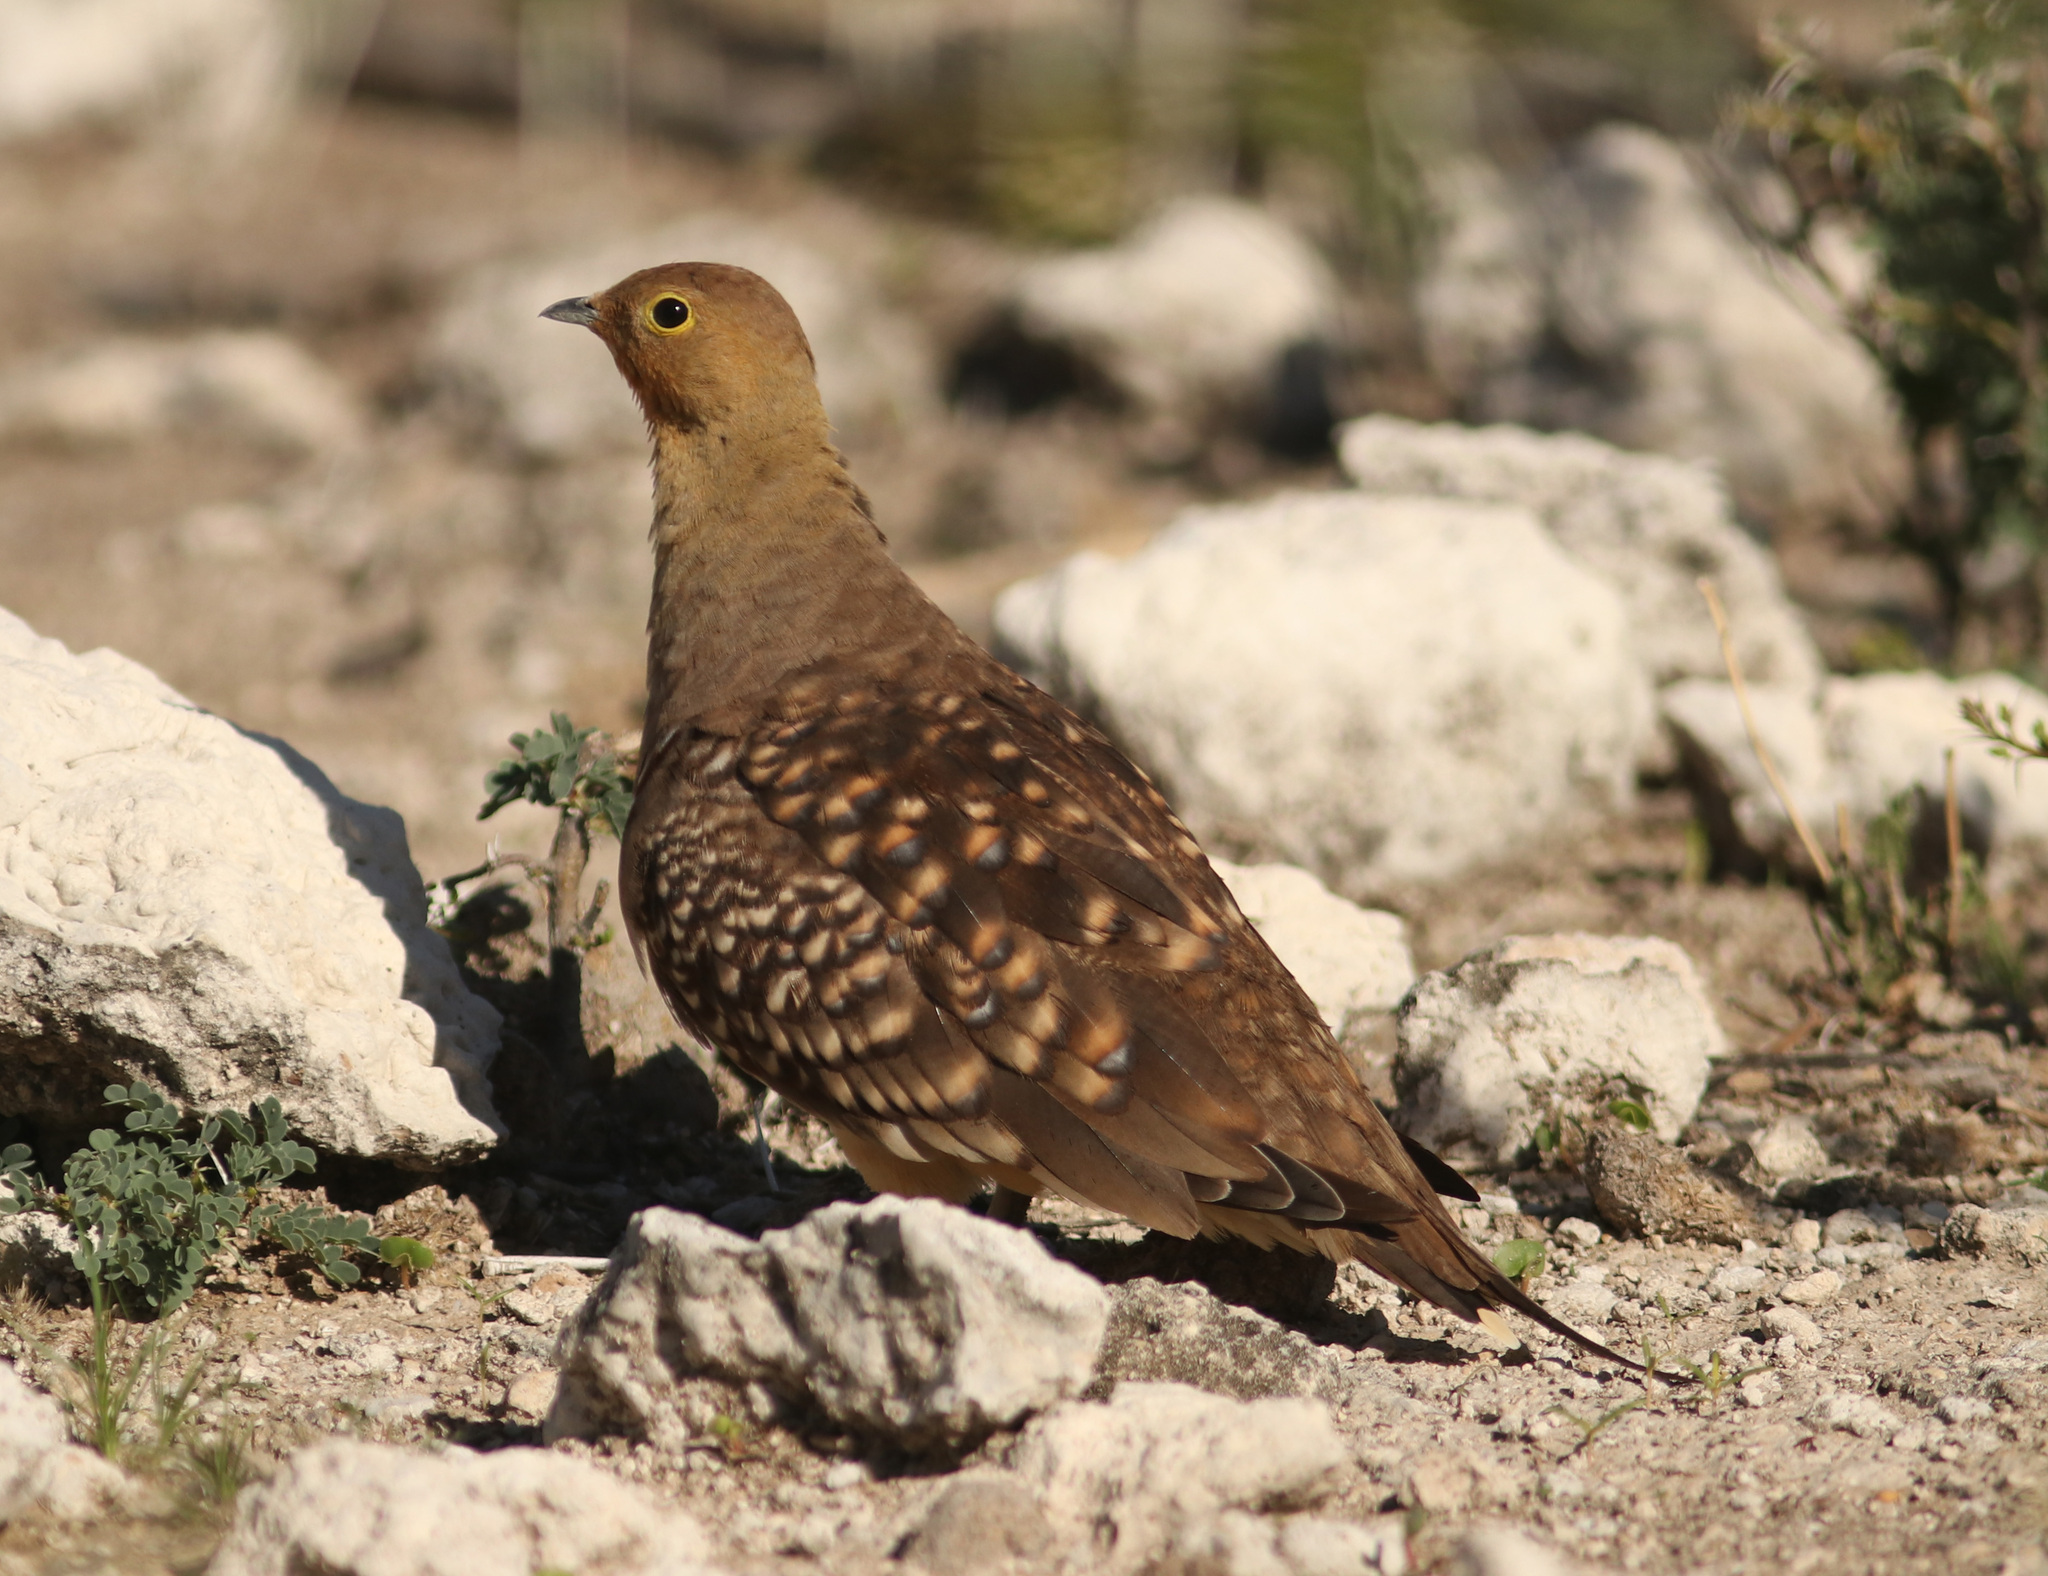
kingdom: Animalia
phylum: Chordata
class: Aves
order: Pteroclidiformes
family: Pteroclididae
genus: Pterocles
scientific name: Pterocles namaqua
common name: Namaqua sandgrouse
